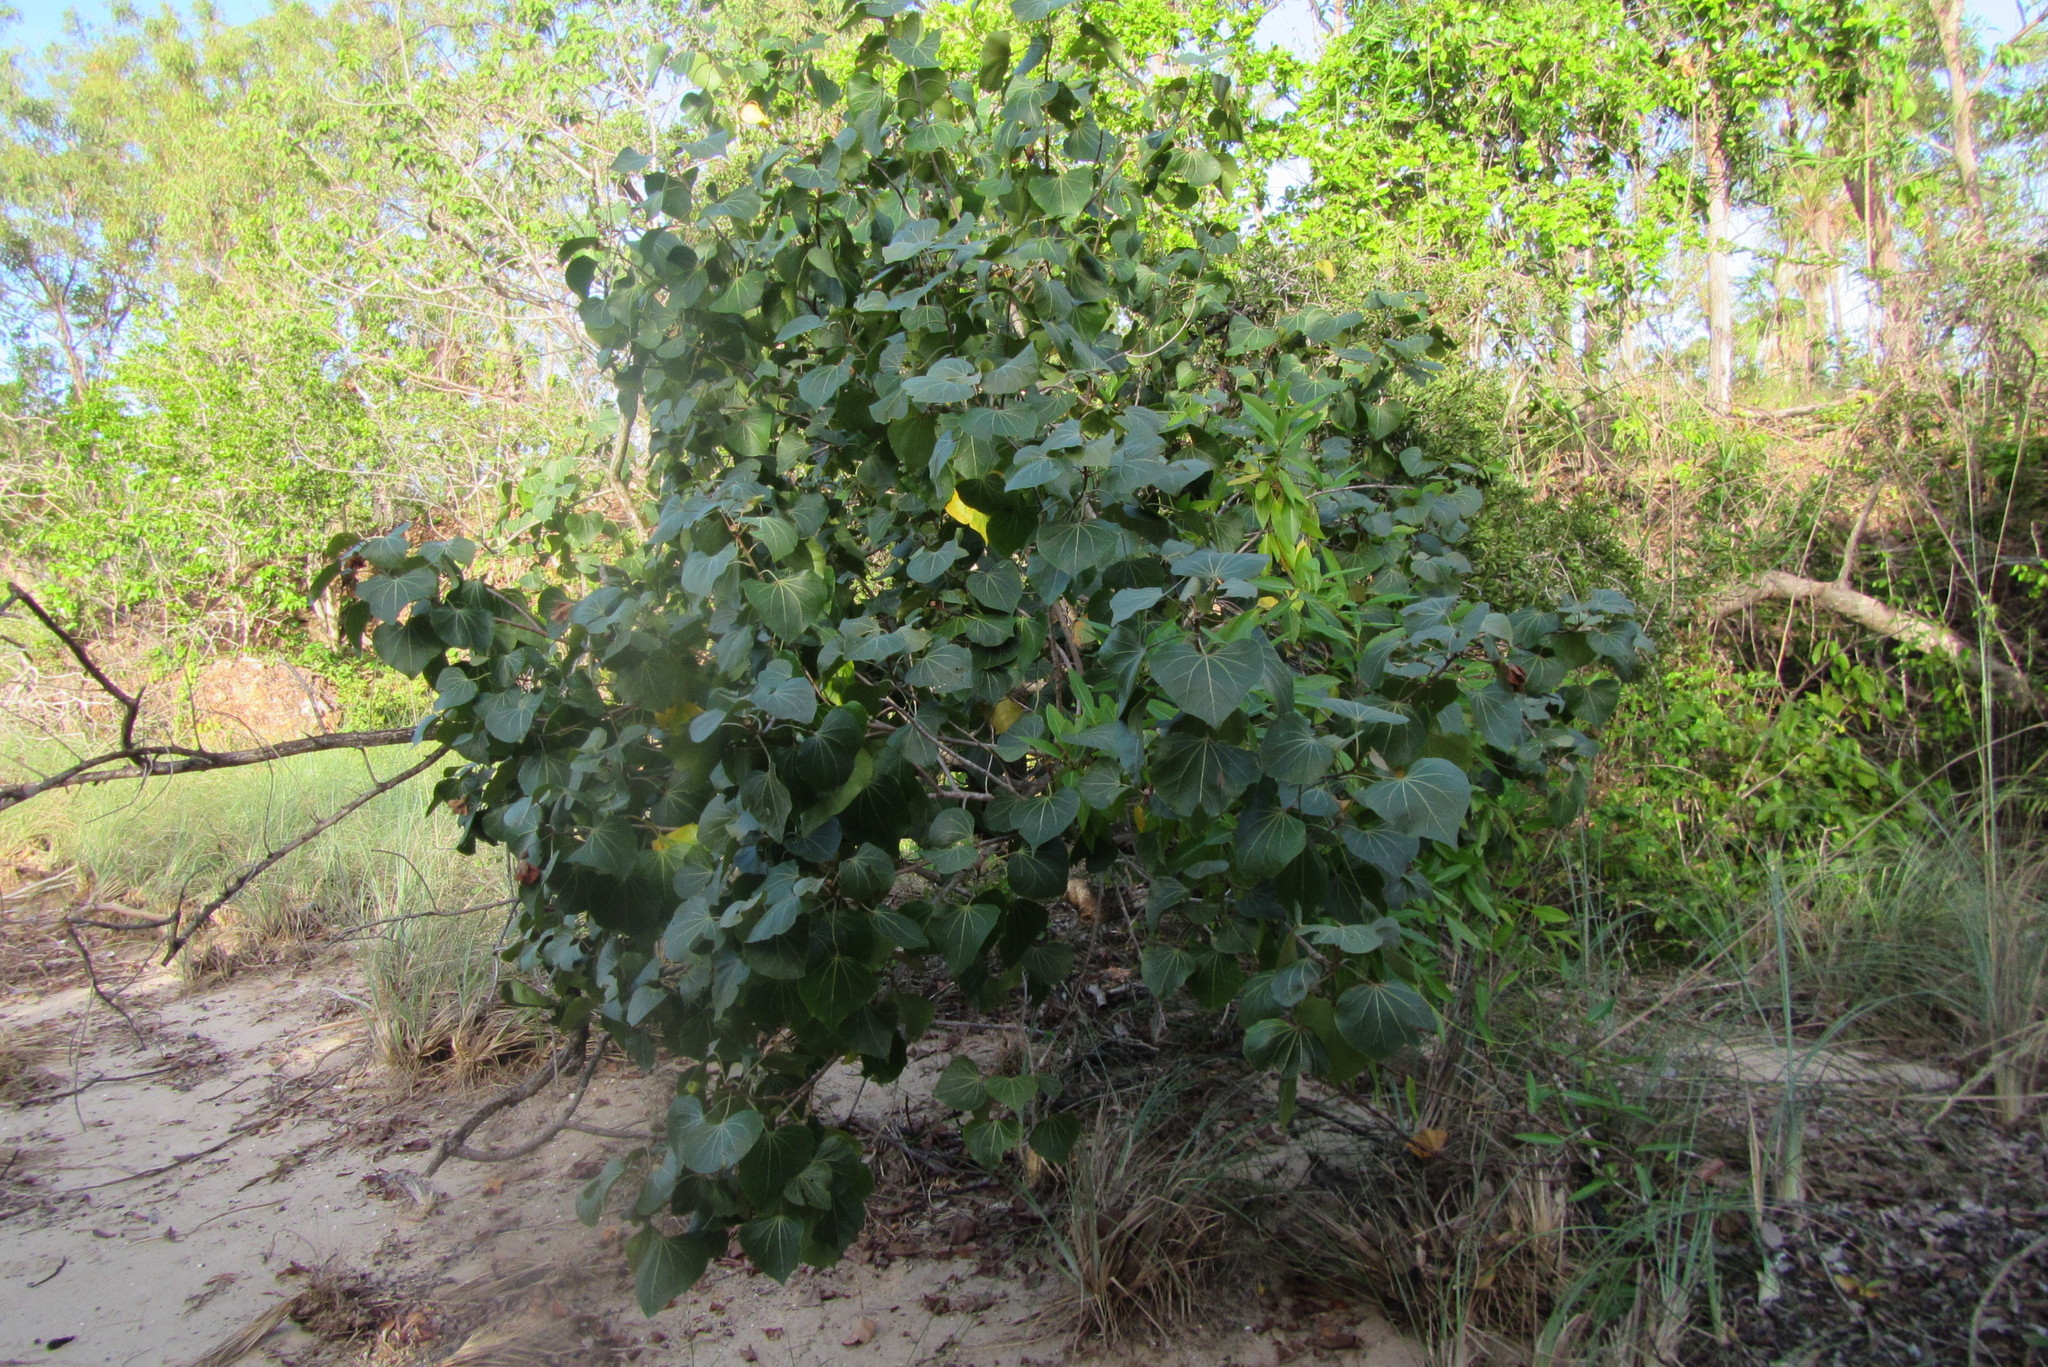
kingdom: Plantae
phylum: Tracheophyta
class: Magnoliopsida
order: Malvales
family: Malvaceae
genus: Thespesia
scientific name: Thespesia populneoides
